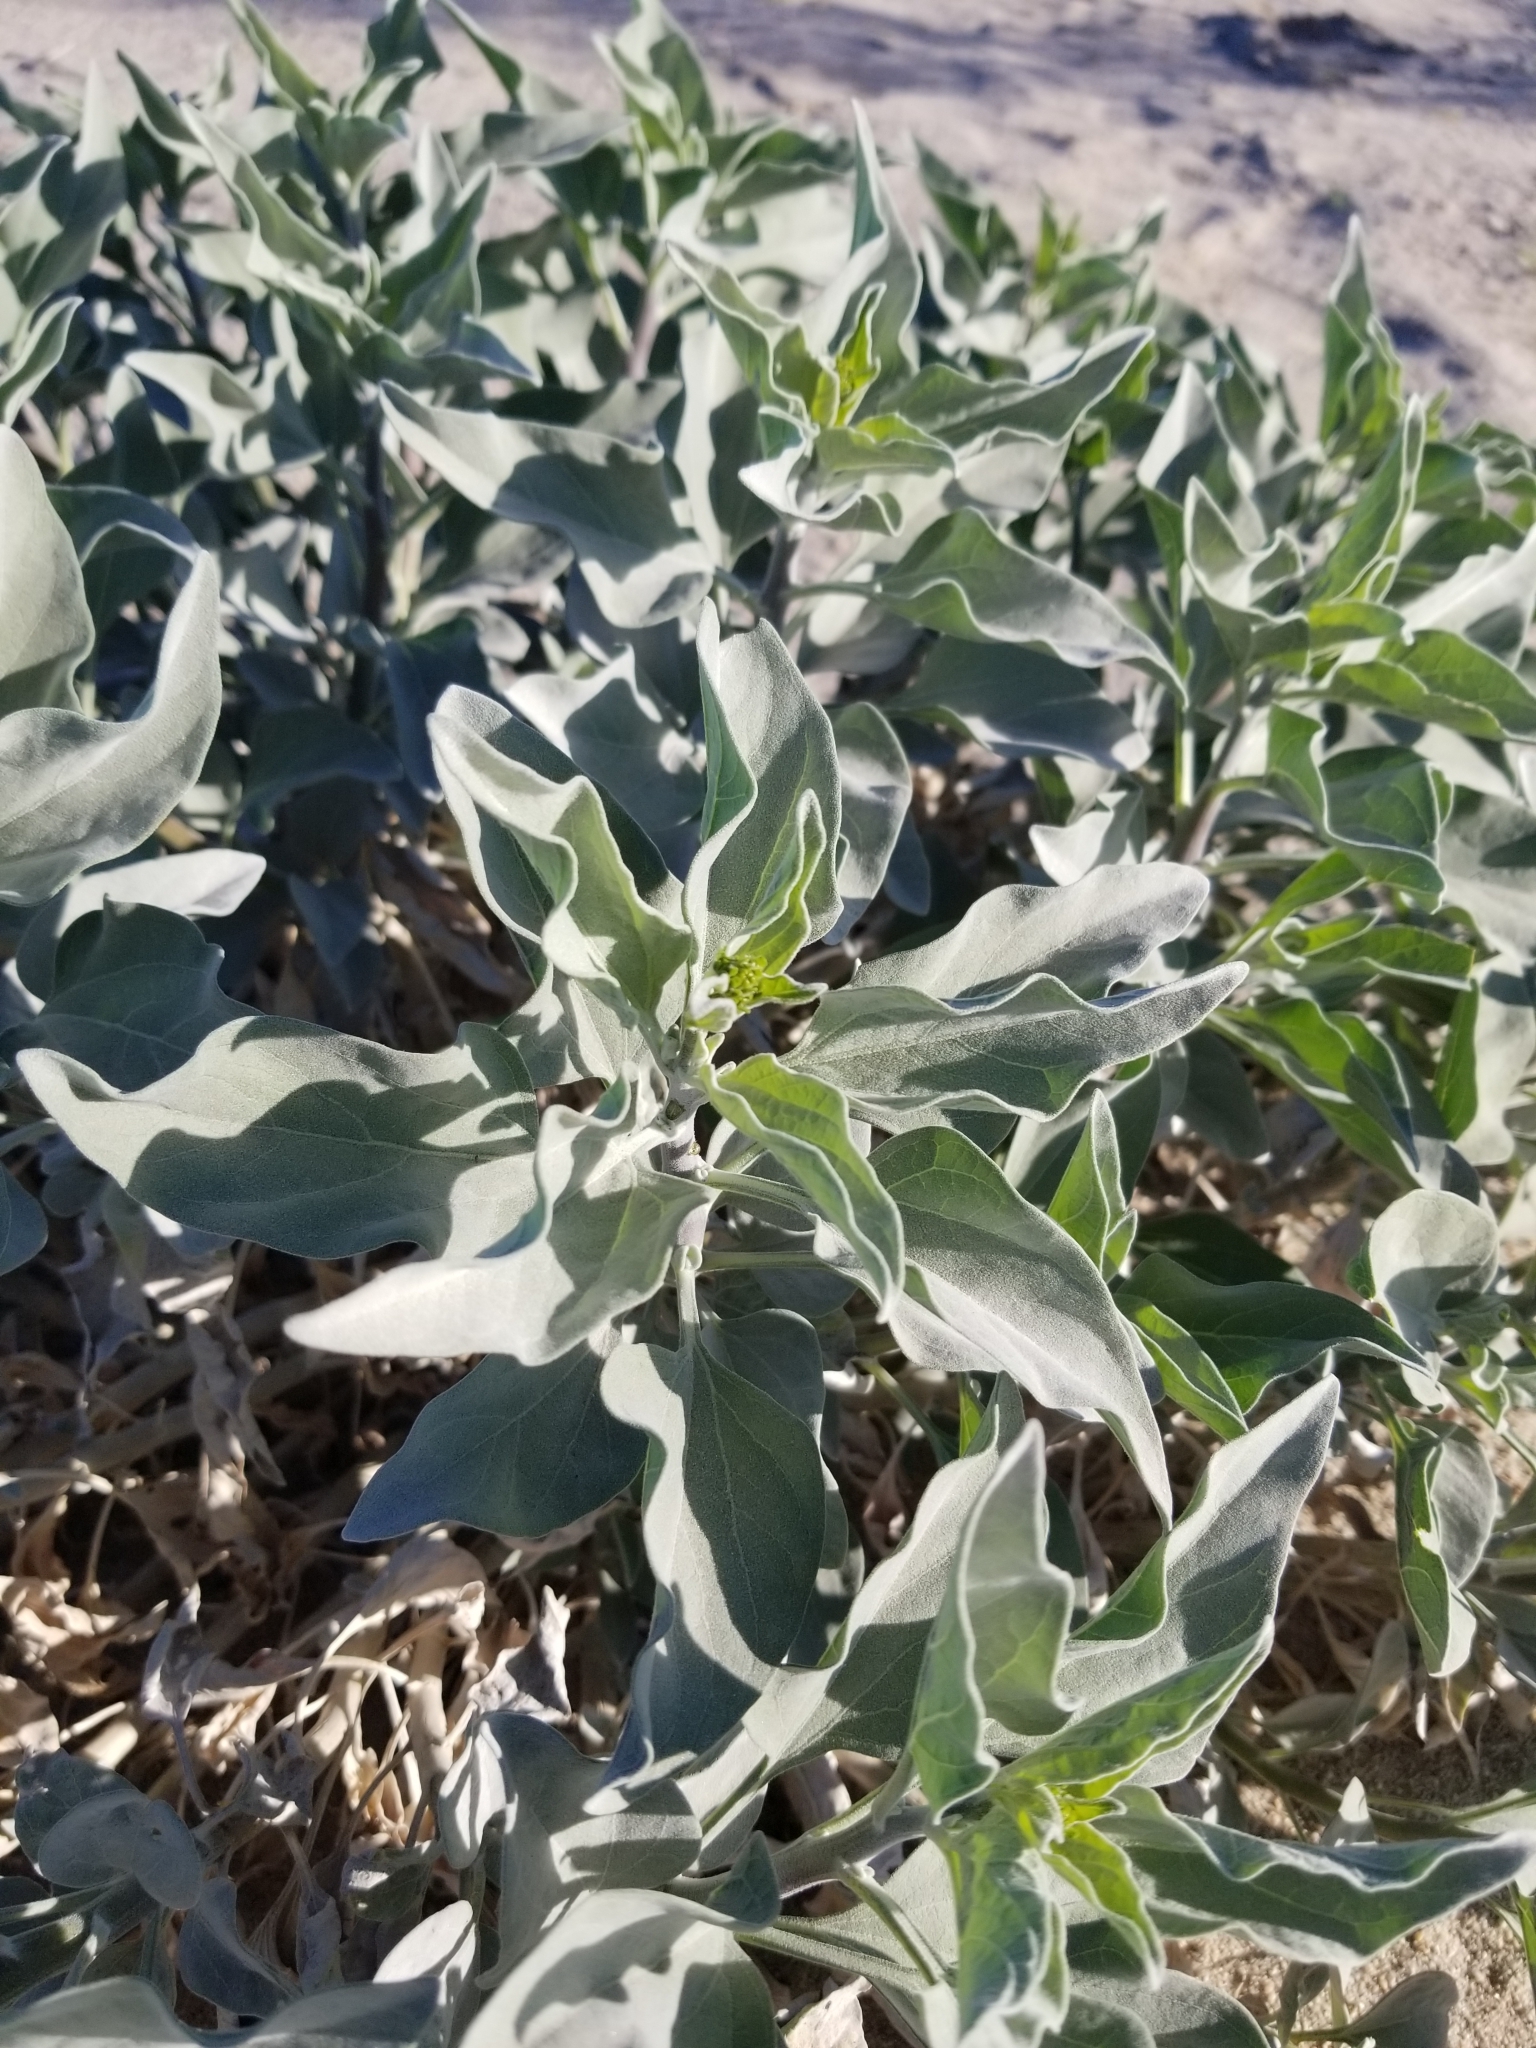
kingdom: Plantae
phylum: Tracheophyta
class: Magnoliopsida
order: Asterales
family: Asteraceae
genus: Encelia
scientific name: Encelia farinosa
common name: Brittlebush
